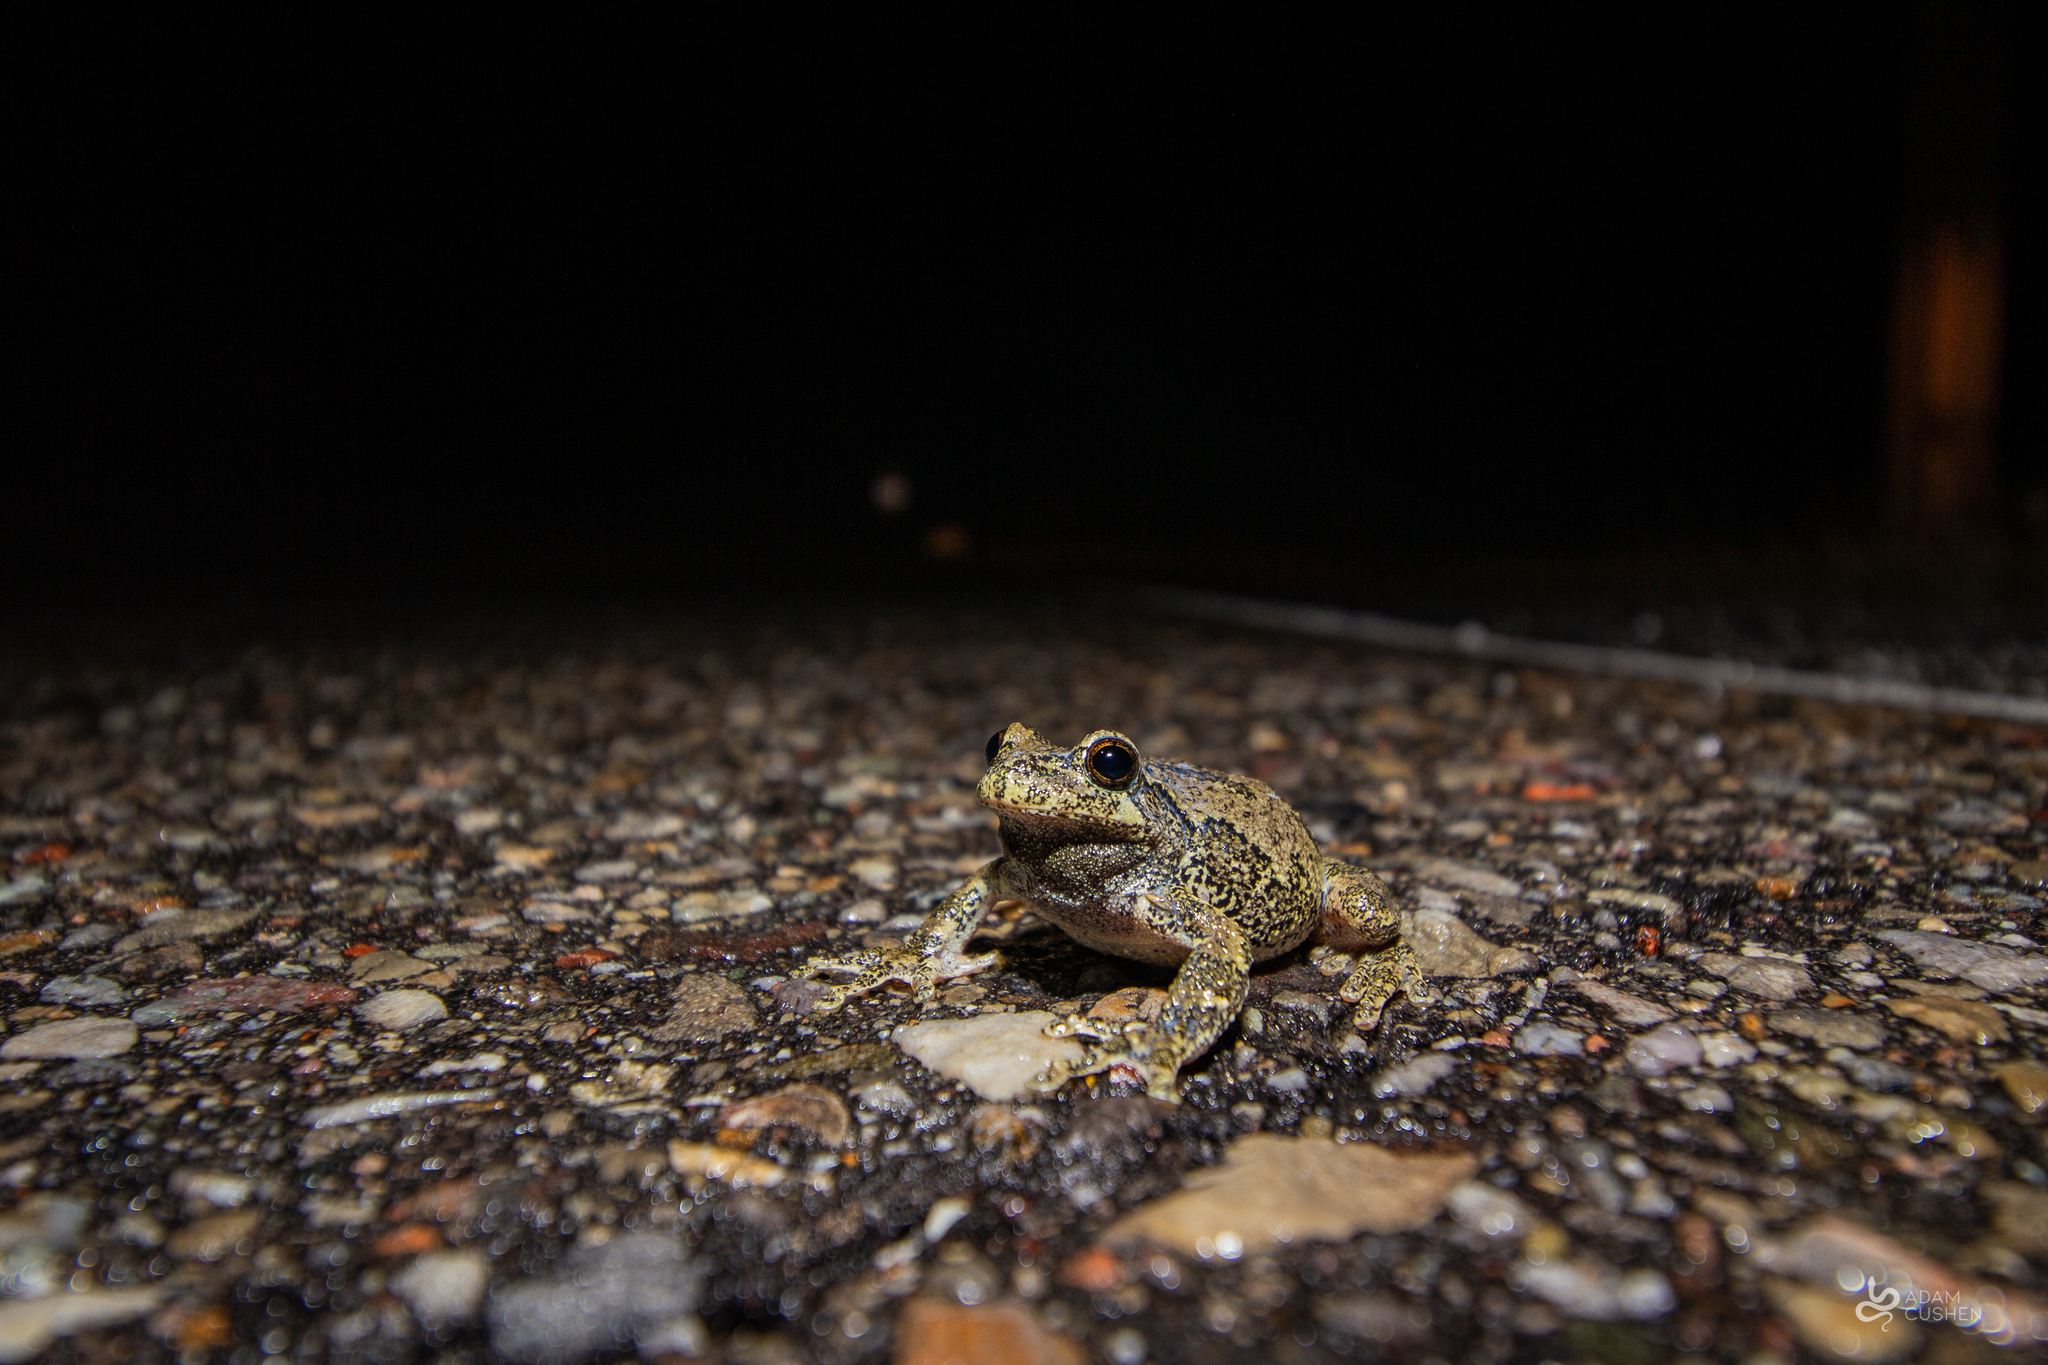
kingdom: Animalia
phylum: Chordata
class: Amphibia
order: Anura
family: Hylidae
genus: Dryophytes
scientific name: Dryophytes versicolor
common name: Gray treefrog
